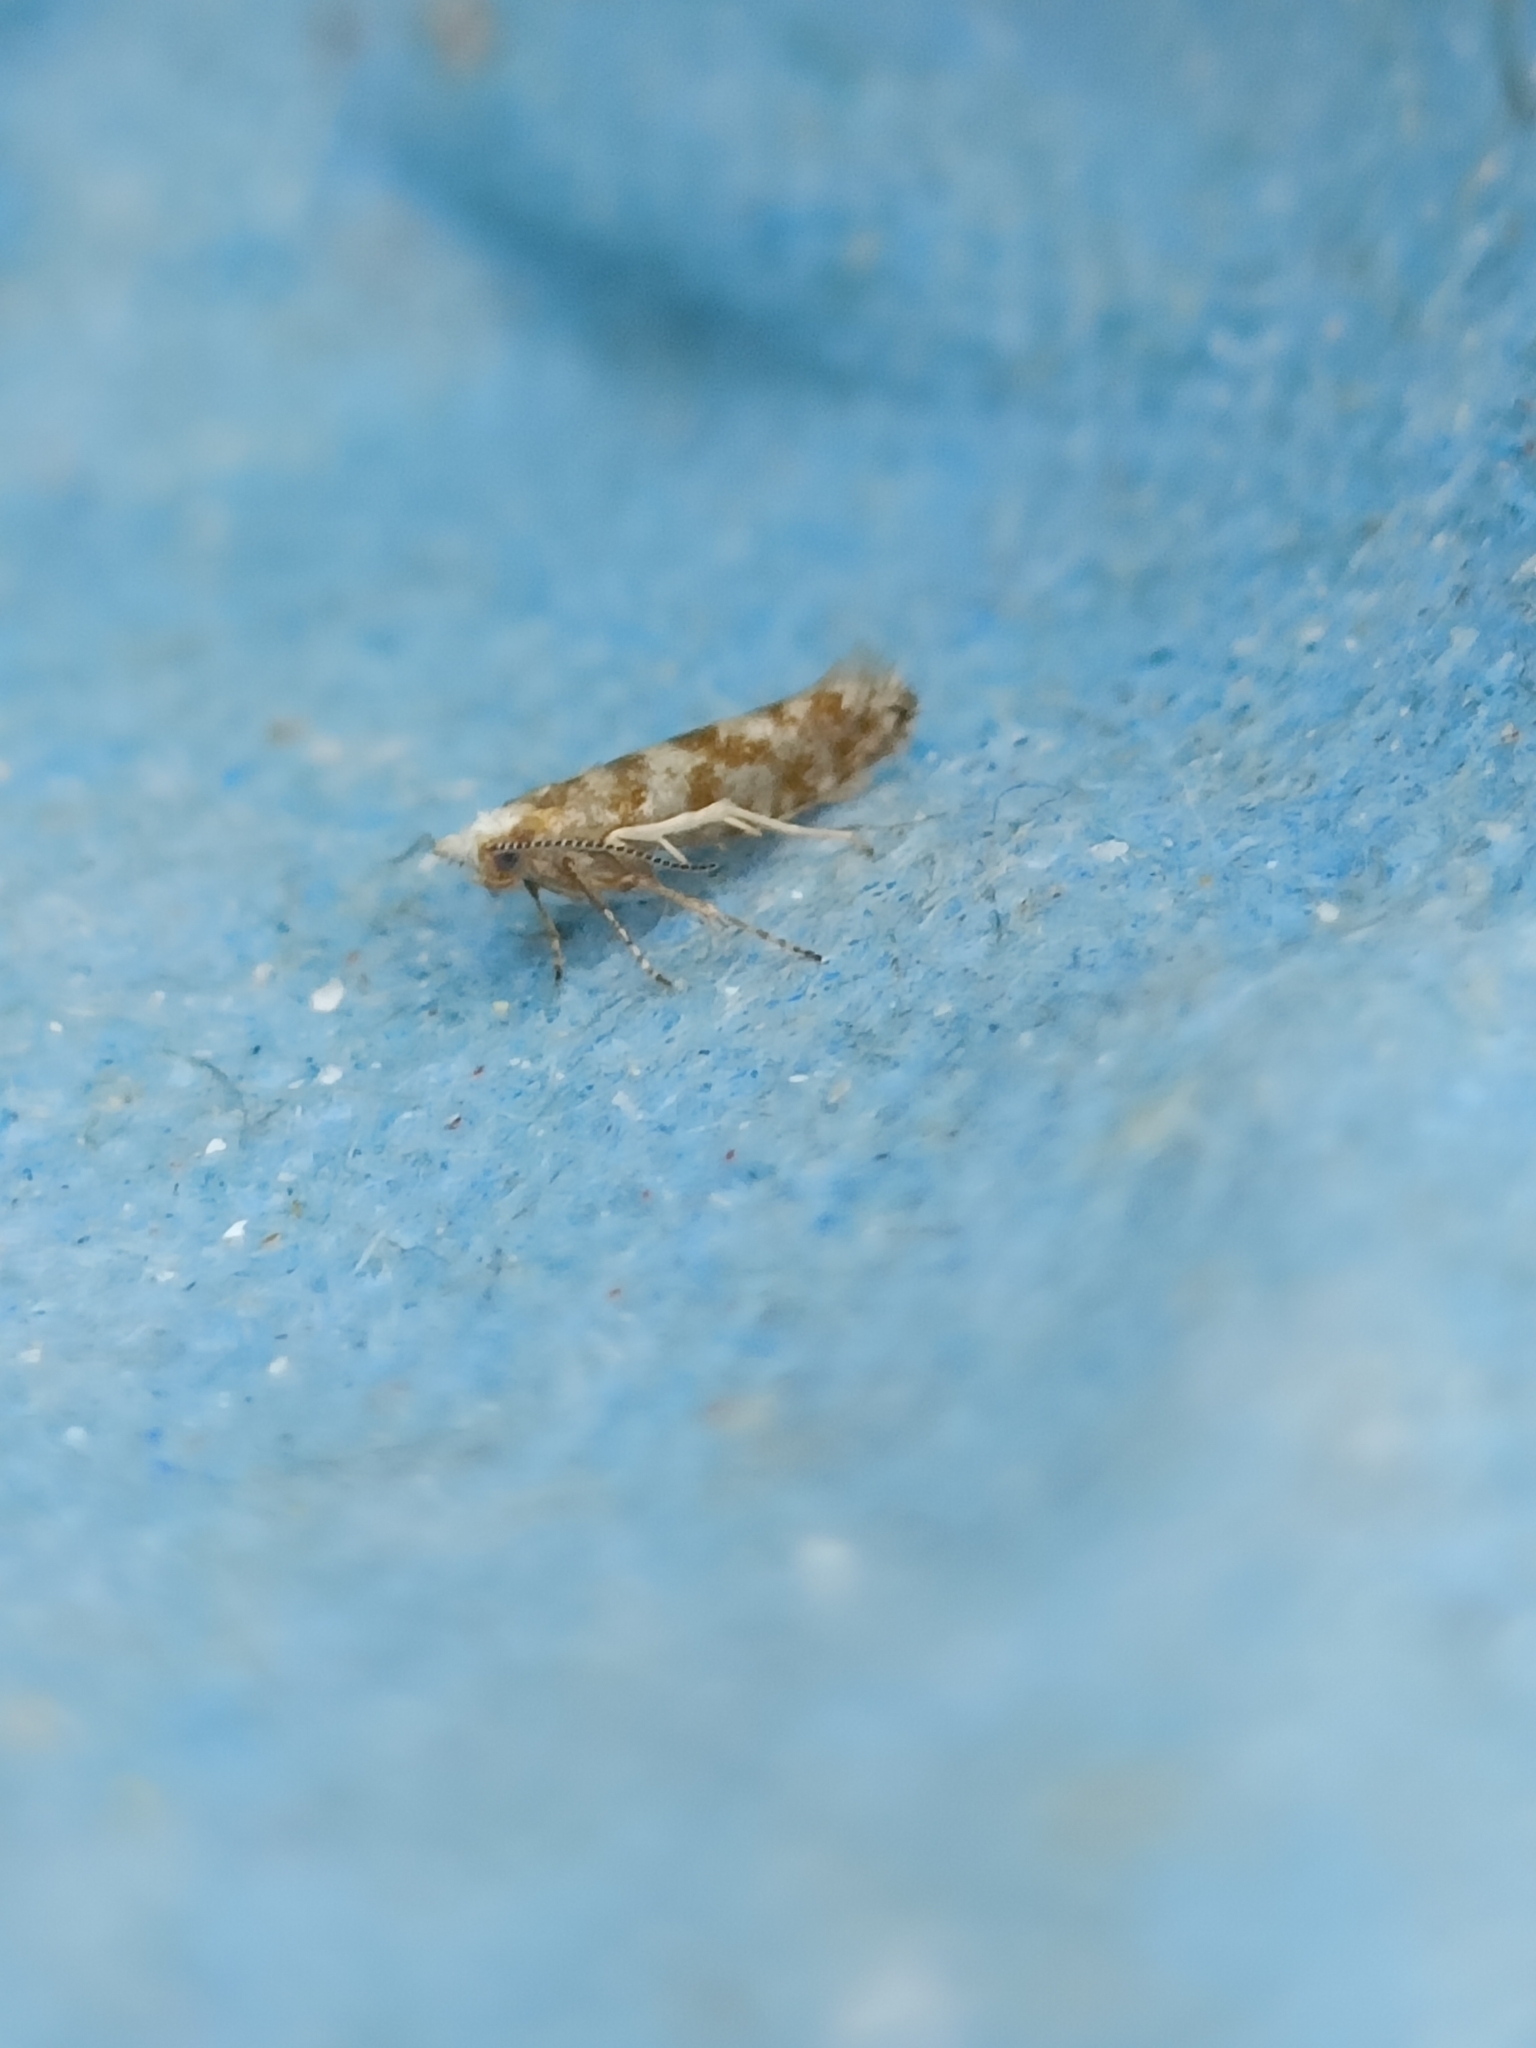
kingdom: Animalia
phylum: Arthropoda
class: Insecta
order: Lepidoptera
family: Argyresthiidae
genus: Argyresthia
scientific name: Argyresthia cupressella
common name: Cypress tip moth
